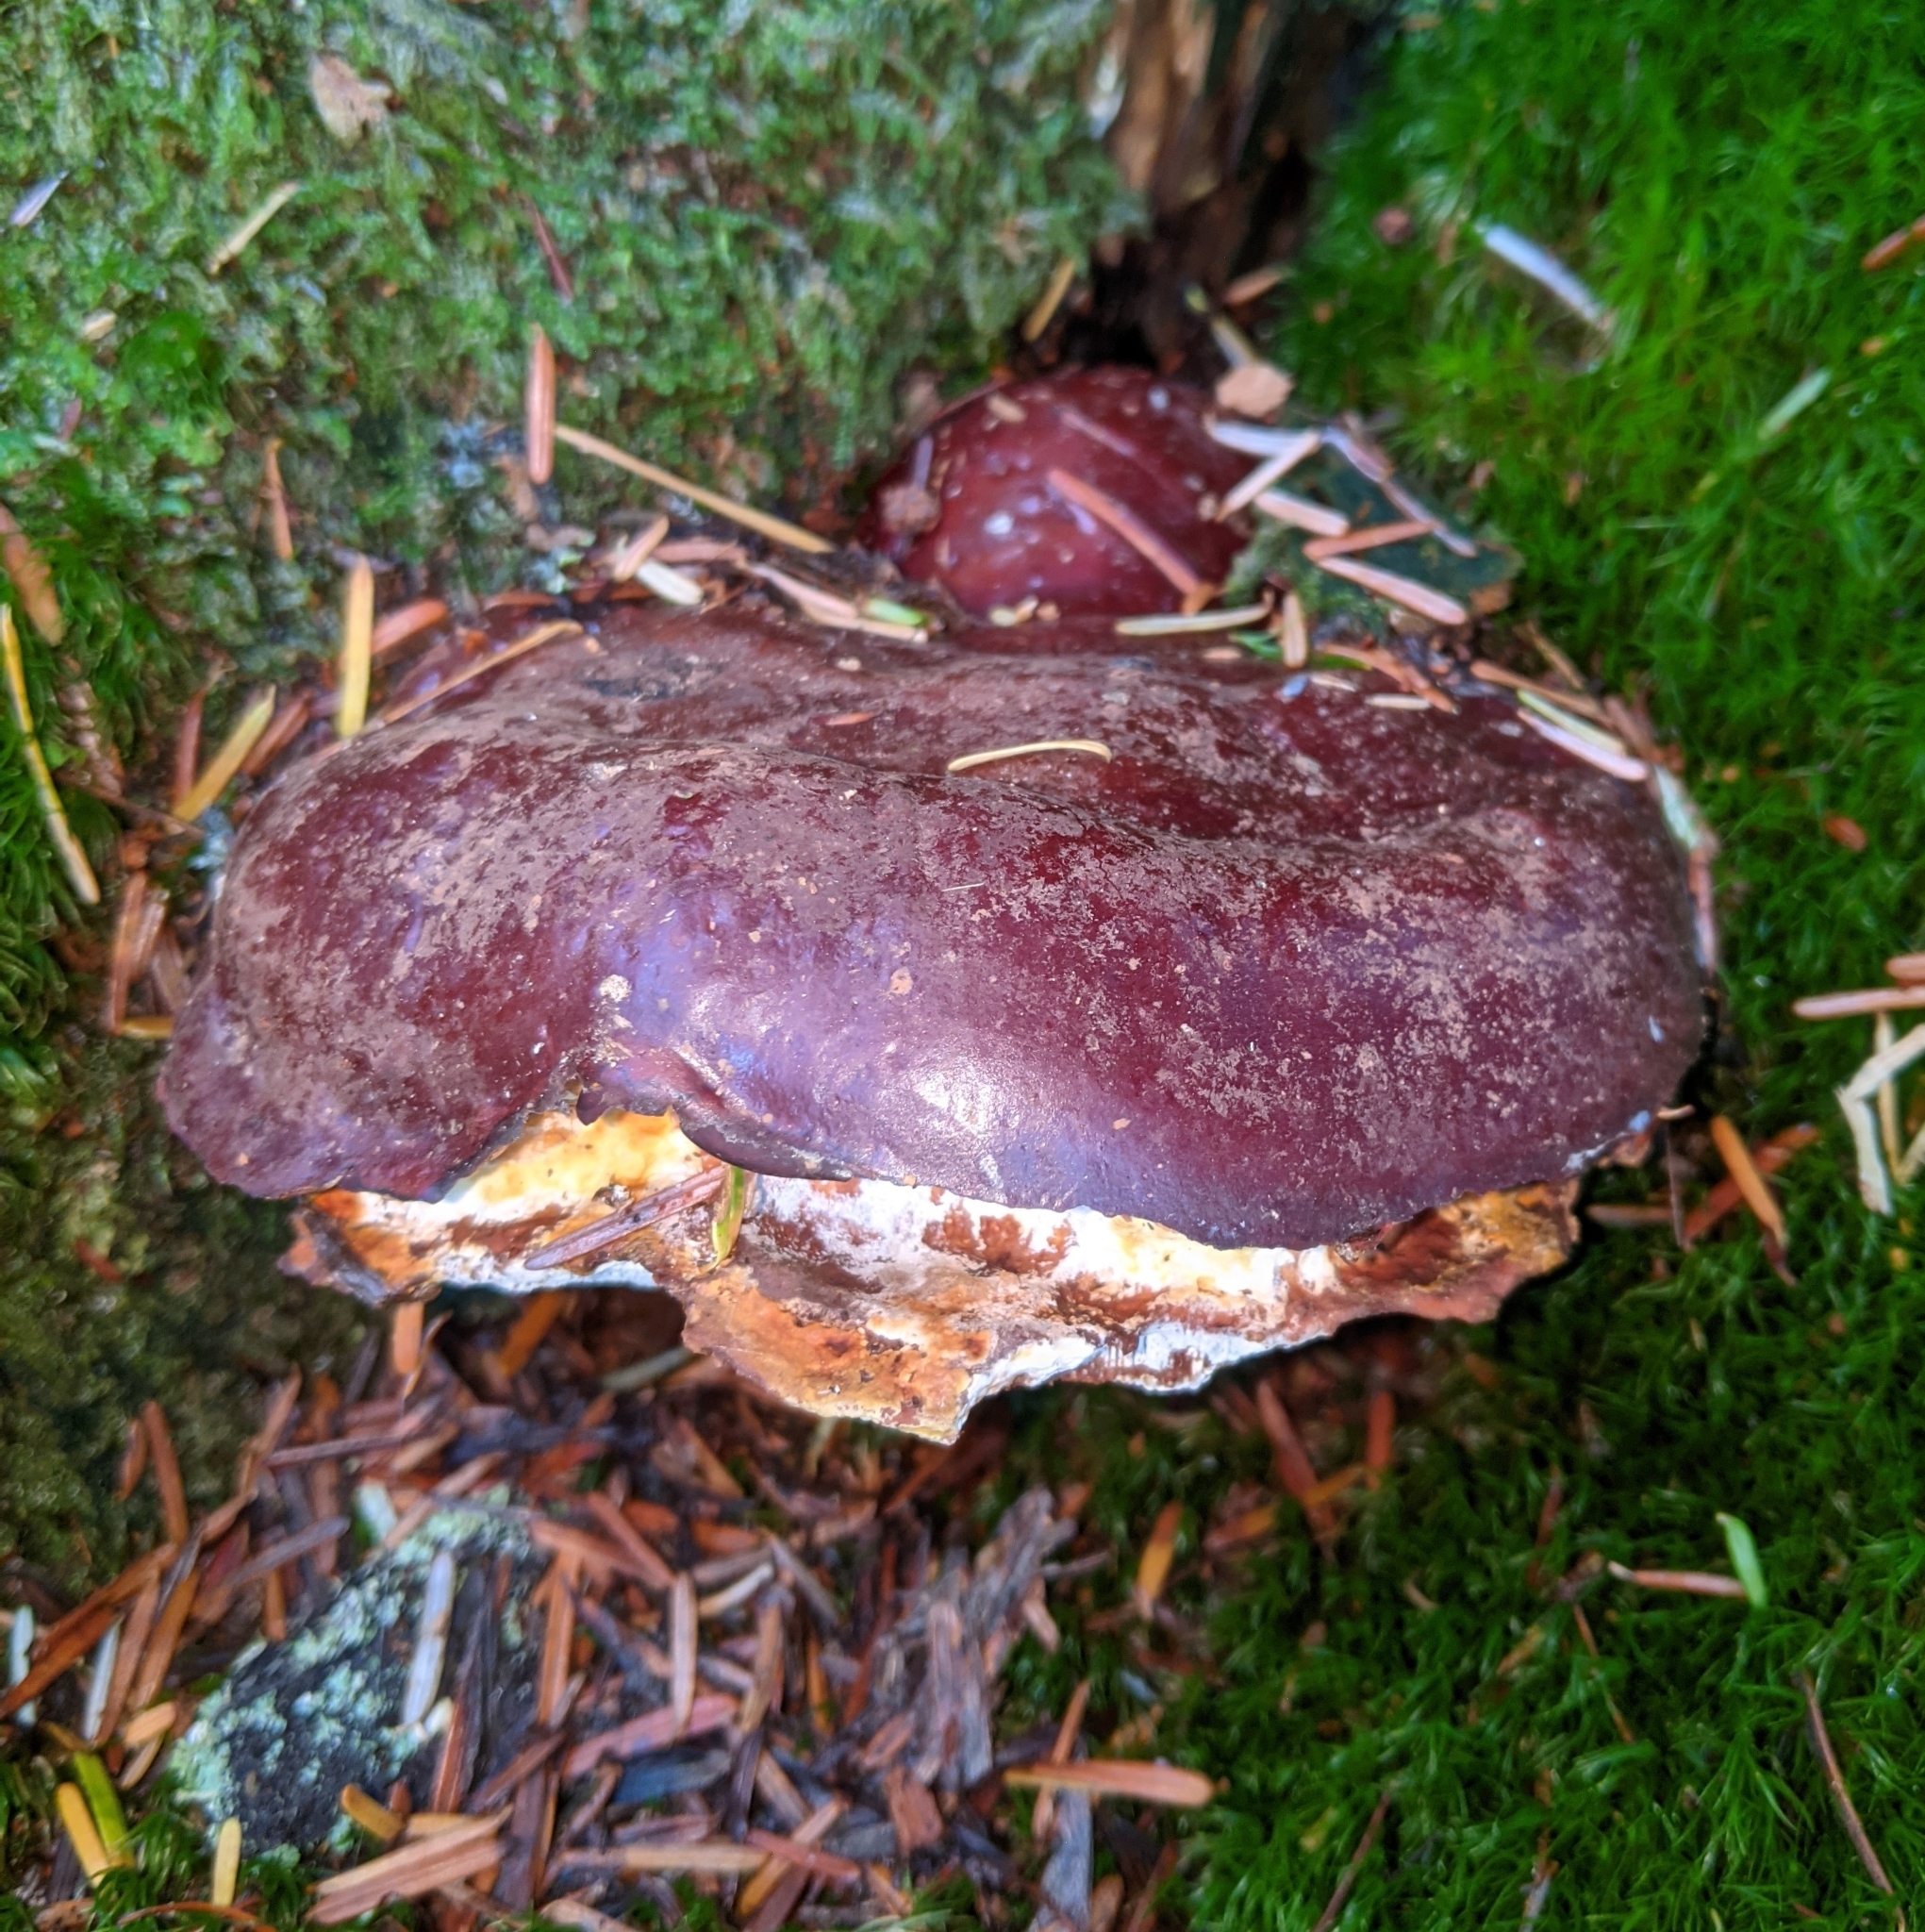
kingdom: Fungi
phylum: Basidiomycota
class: Agaricomycetes
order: Polyporales
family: Polyporaceae
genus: Ganoderma
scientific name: Ganoderma oregonense
